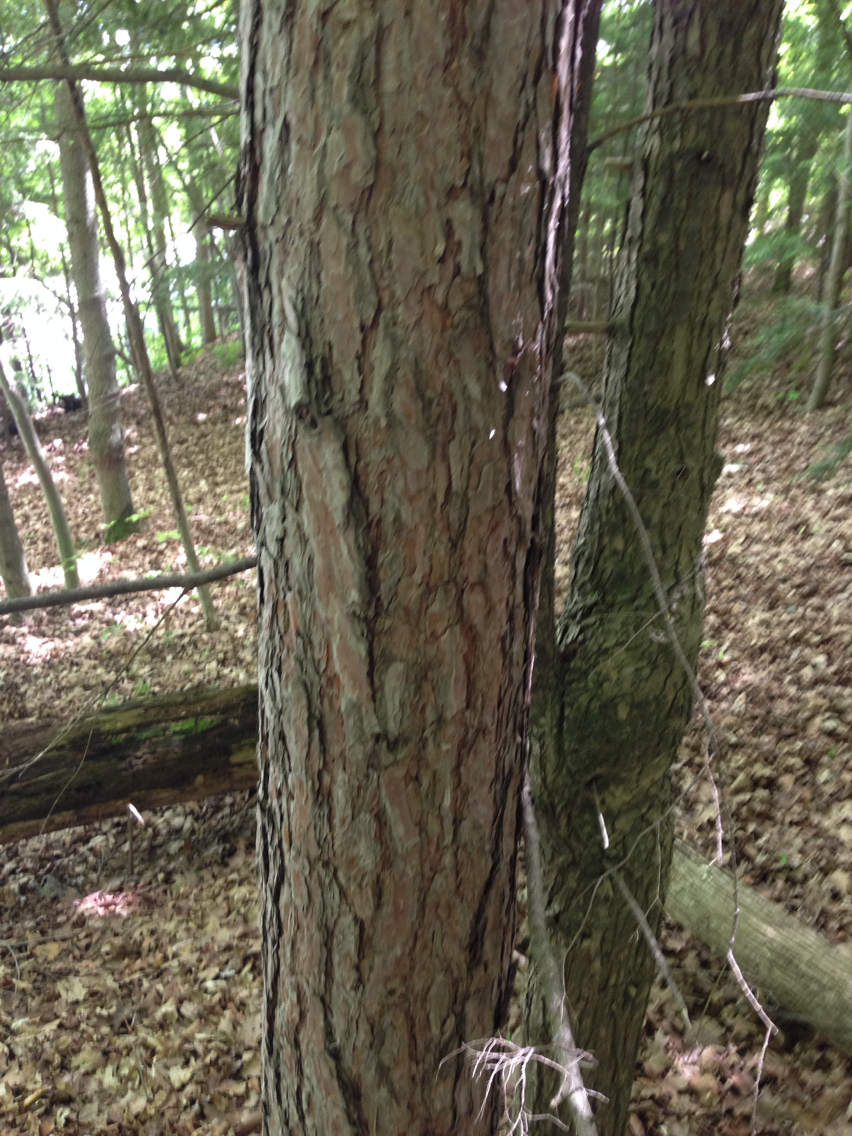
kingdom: Plantae
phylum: Tracheophyta
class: Pinopsida
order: Pinales
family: Pinaceae
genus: Pinus
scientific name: Pinus resinosa
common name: Norway pine
